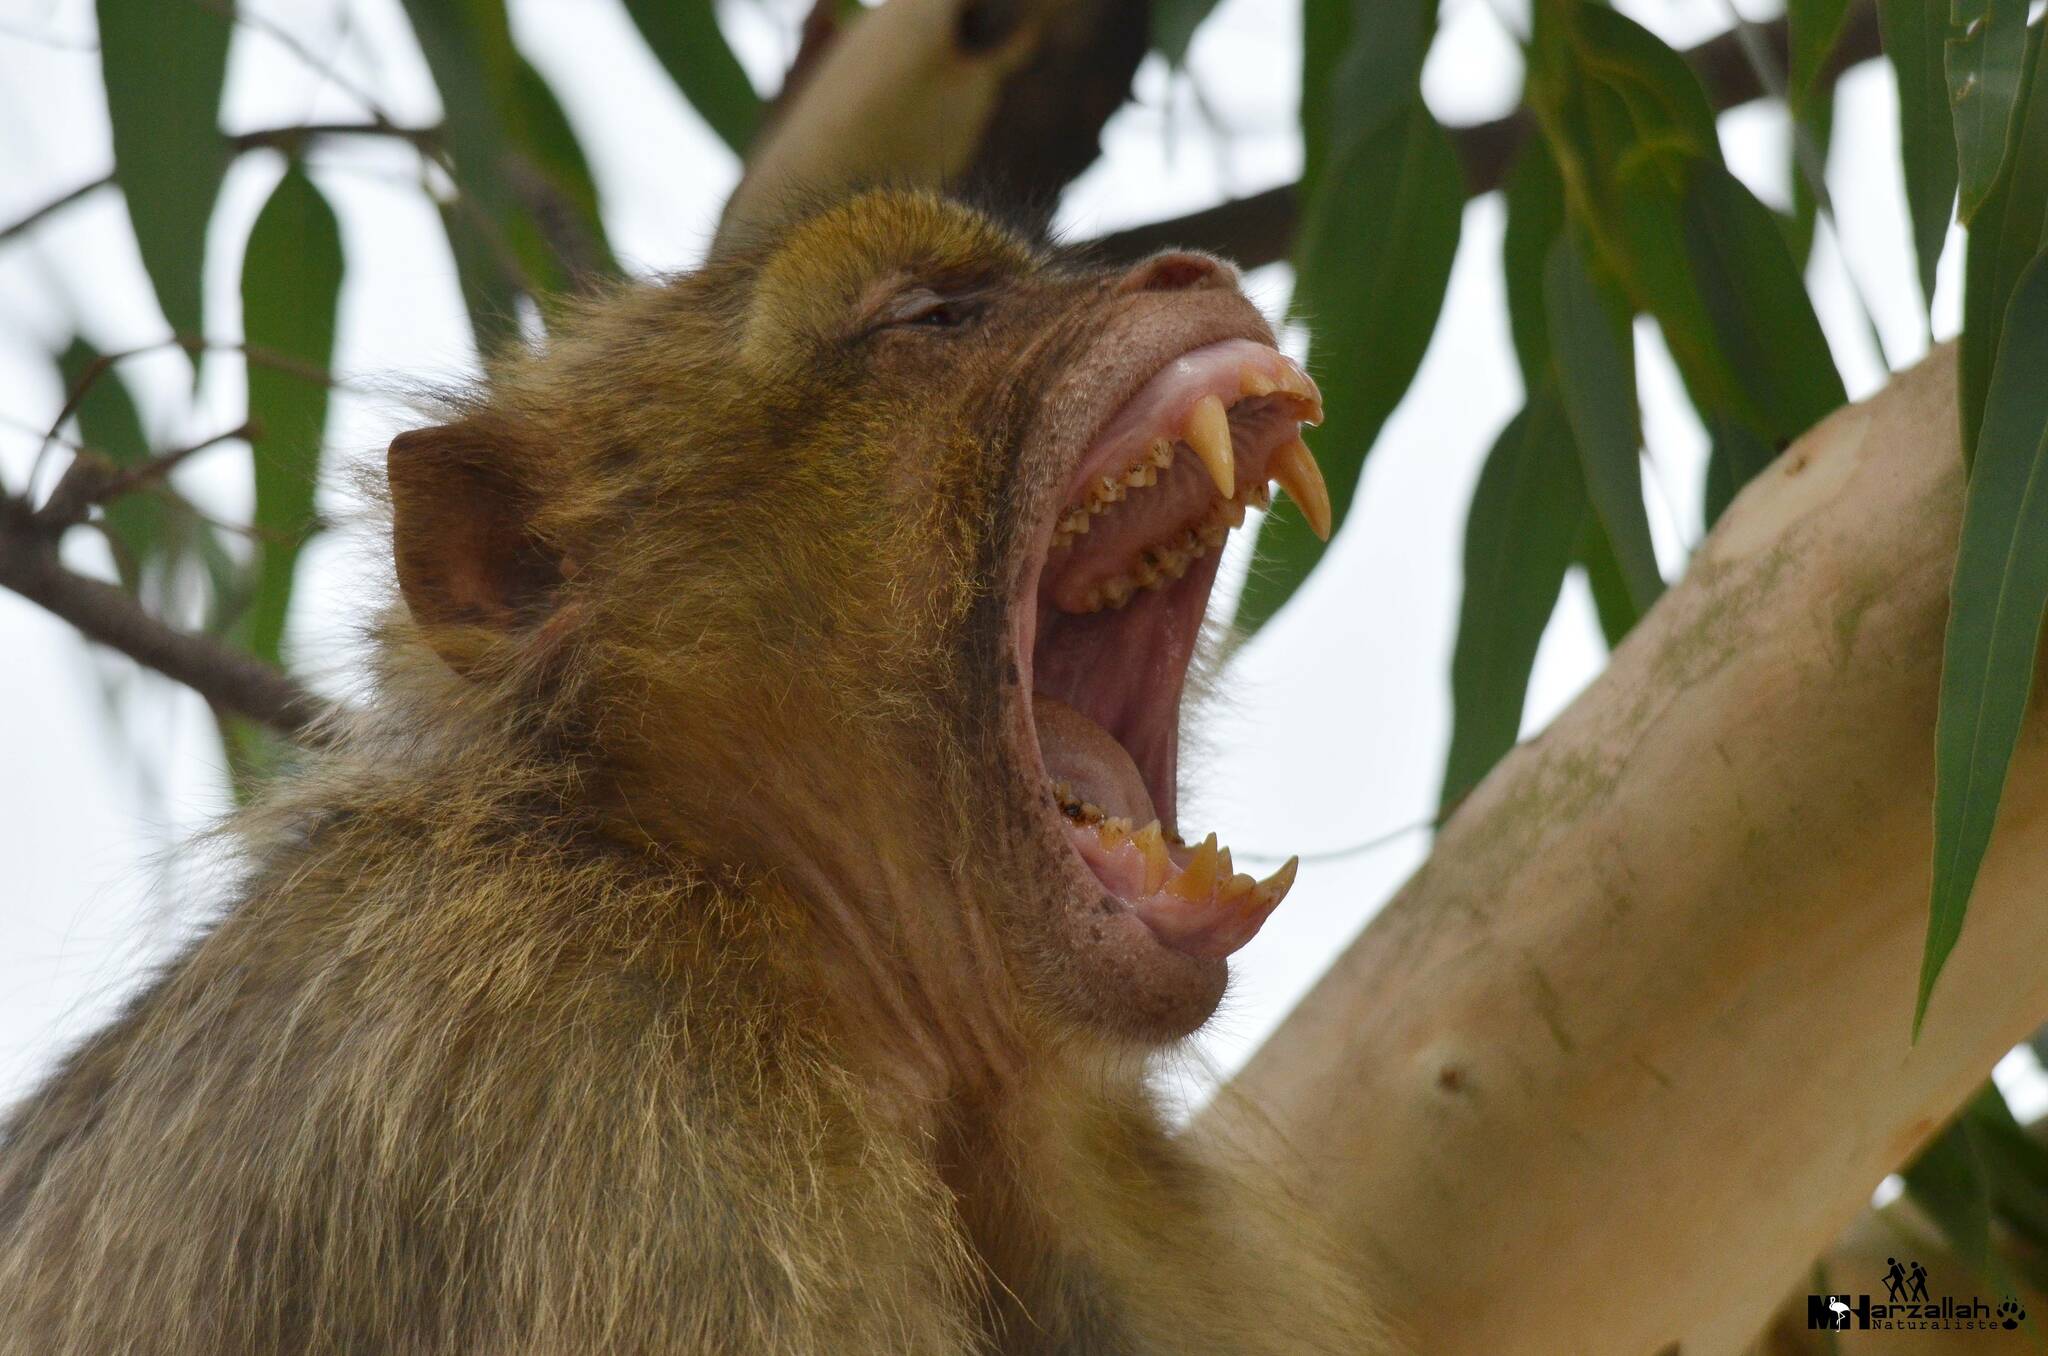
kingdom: Animalia
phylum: Chordata
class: Mammalia
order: Primates
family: Cercopithecidae
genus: Macaca
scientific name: Macaca sylvanus
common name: Barbary macaque
